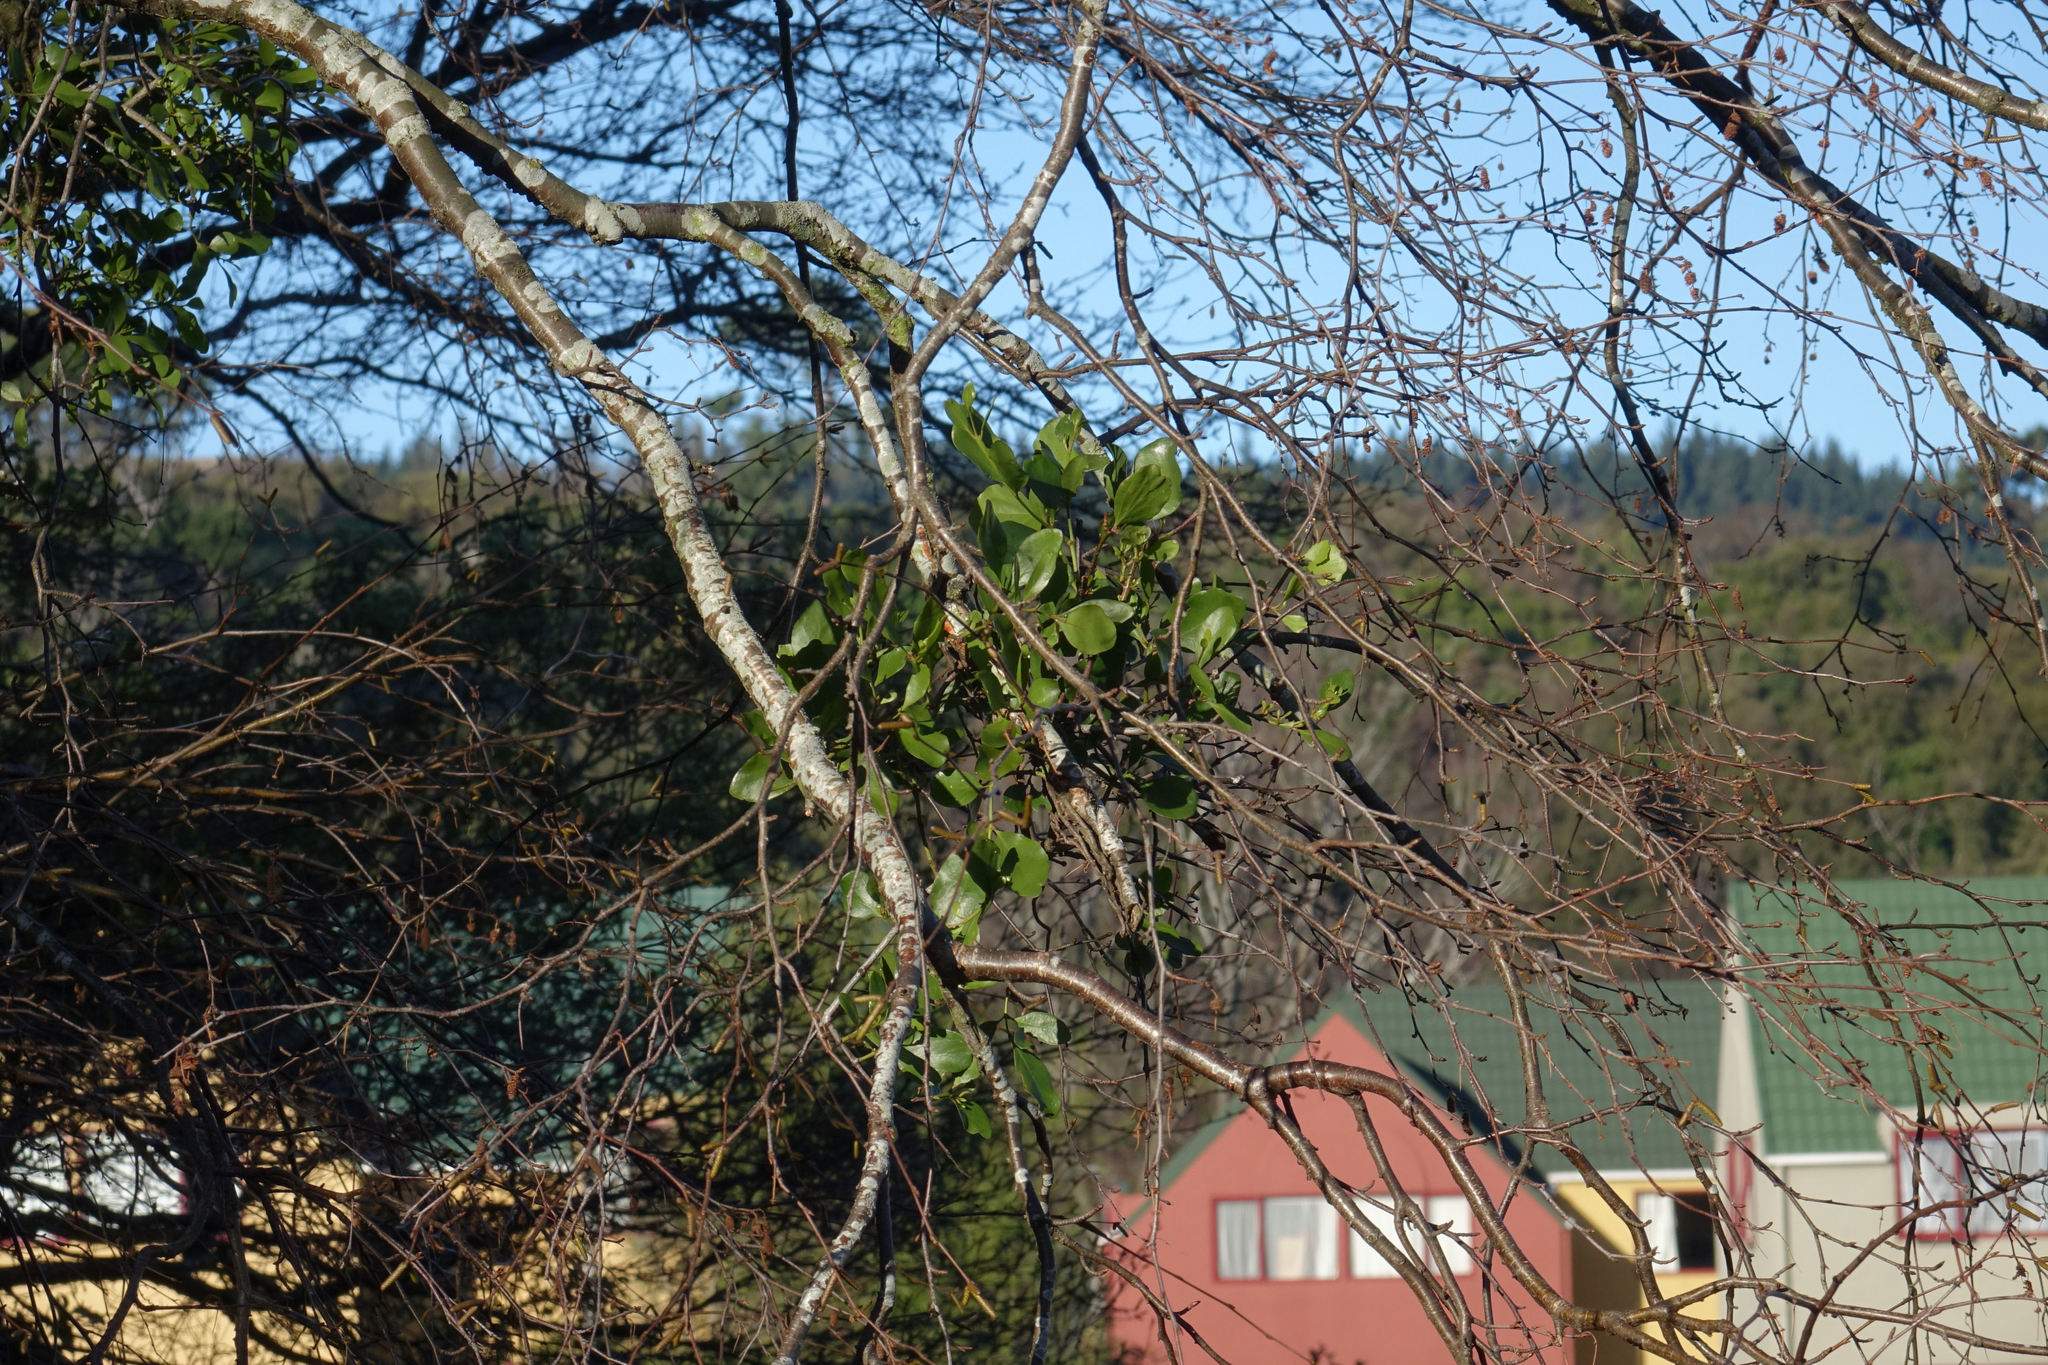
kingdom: Plantae
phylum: Tracheophyta
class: Magnoliopsida
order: Santalales
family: Loranthaceae
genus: Ileostylus
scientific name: Ileostylus micranthus
